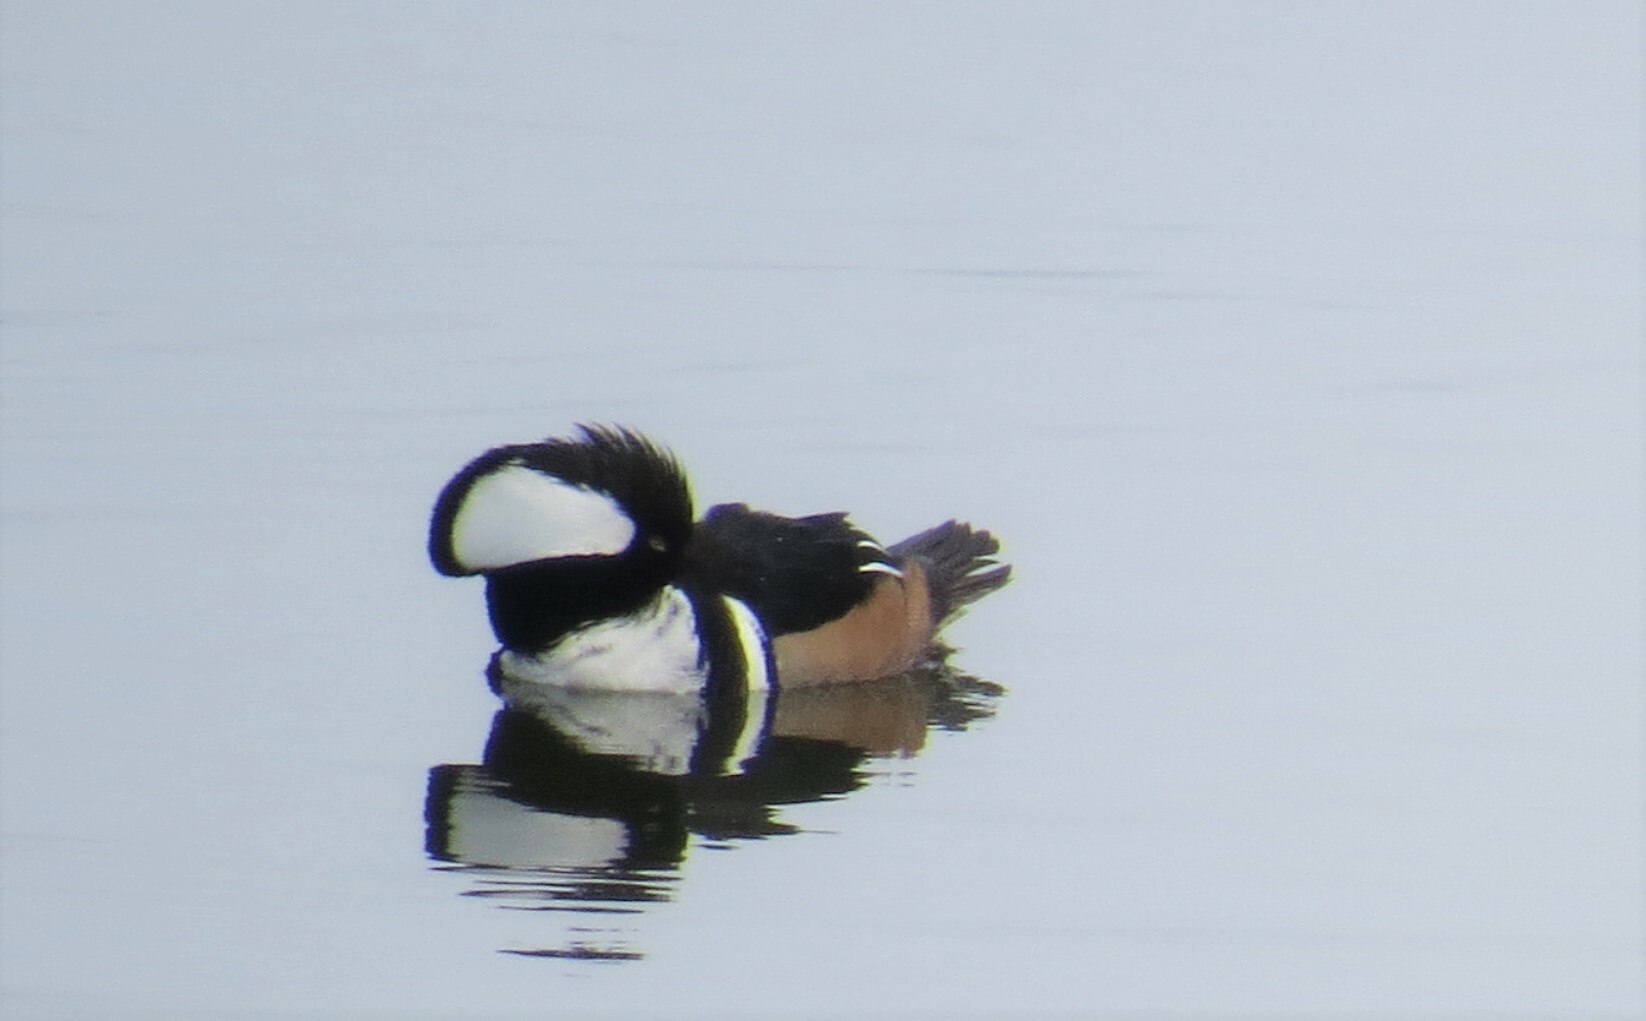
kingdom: Animalia
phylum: Chordata
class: Aves
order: Anseriformes
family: Anatidae
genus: Lophodytes
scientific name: Lophodytes cucullatus
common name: Hooded merganser
